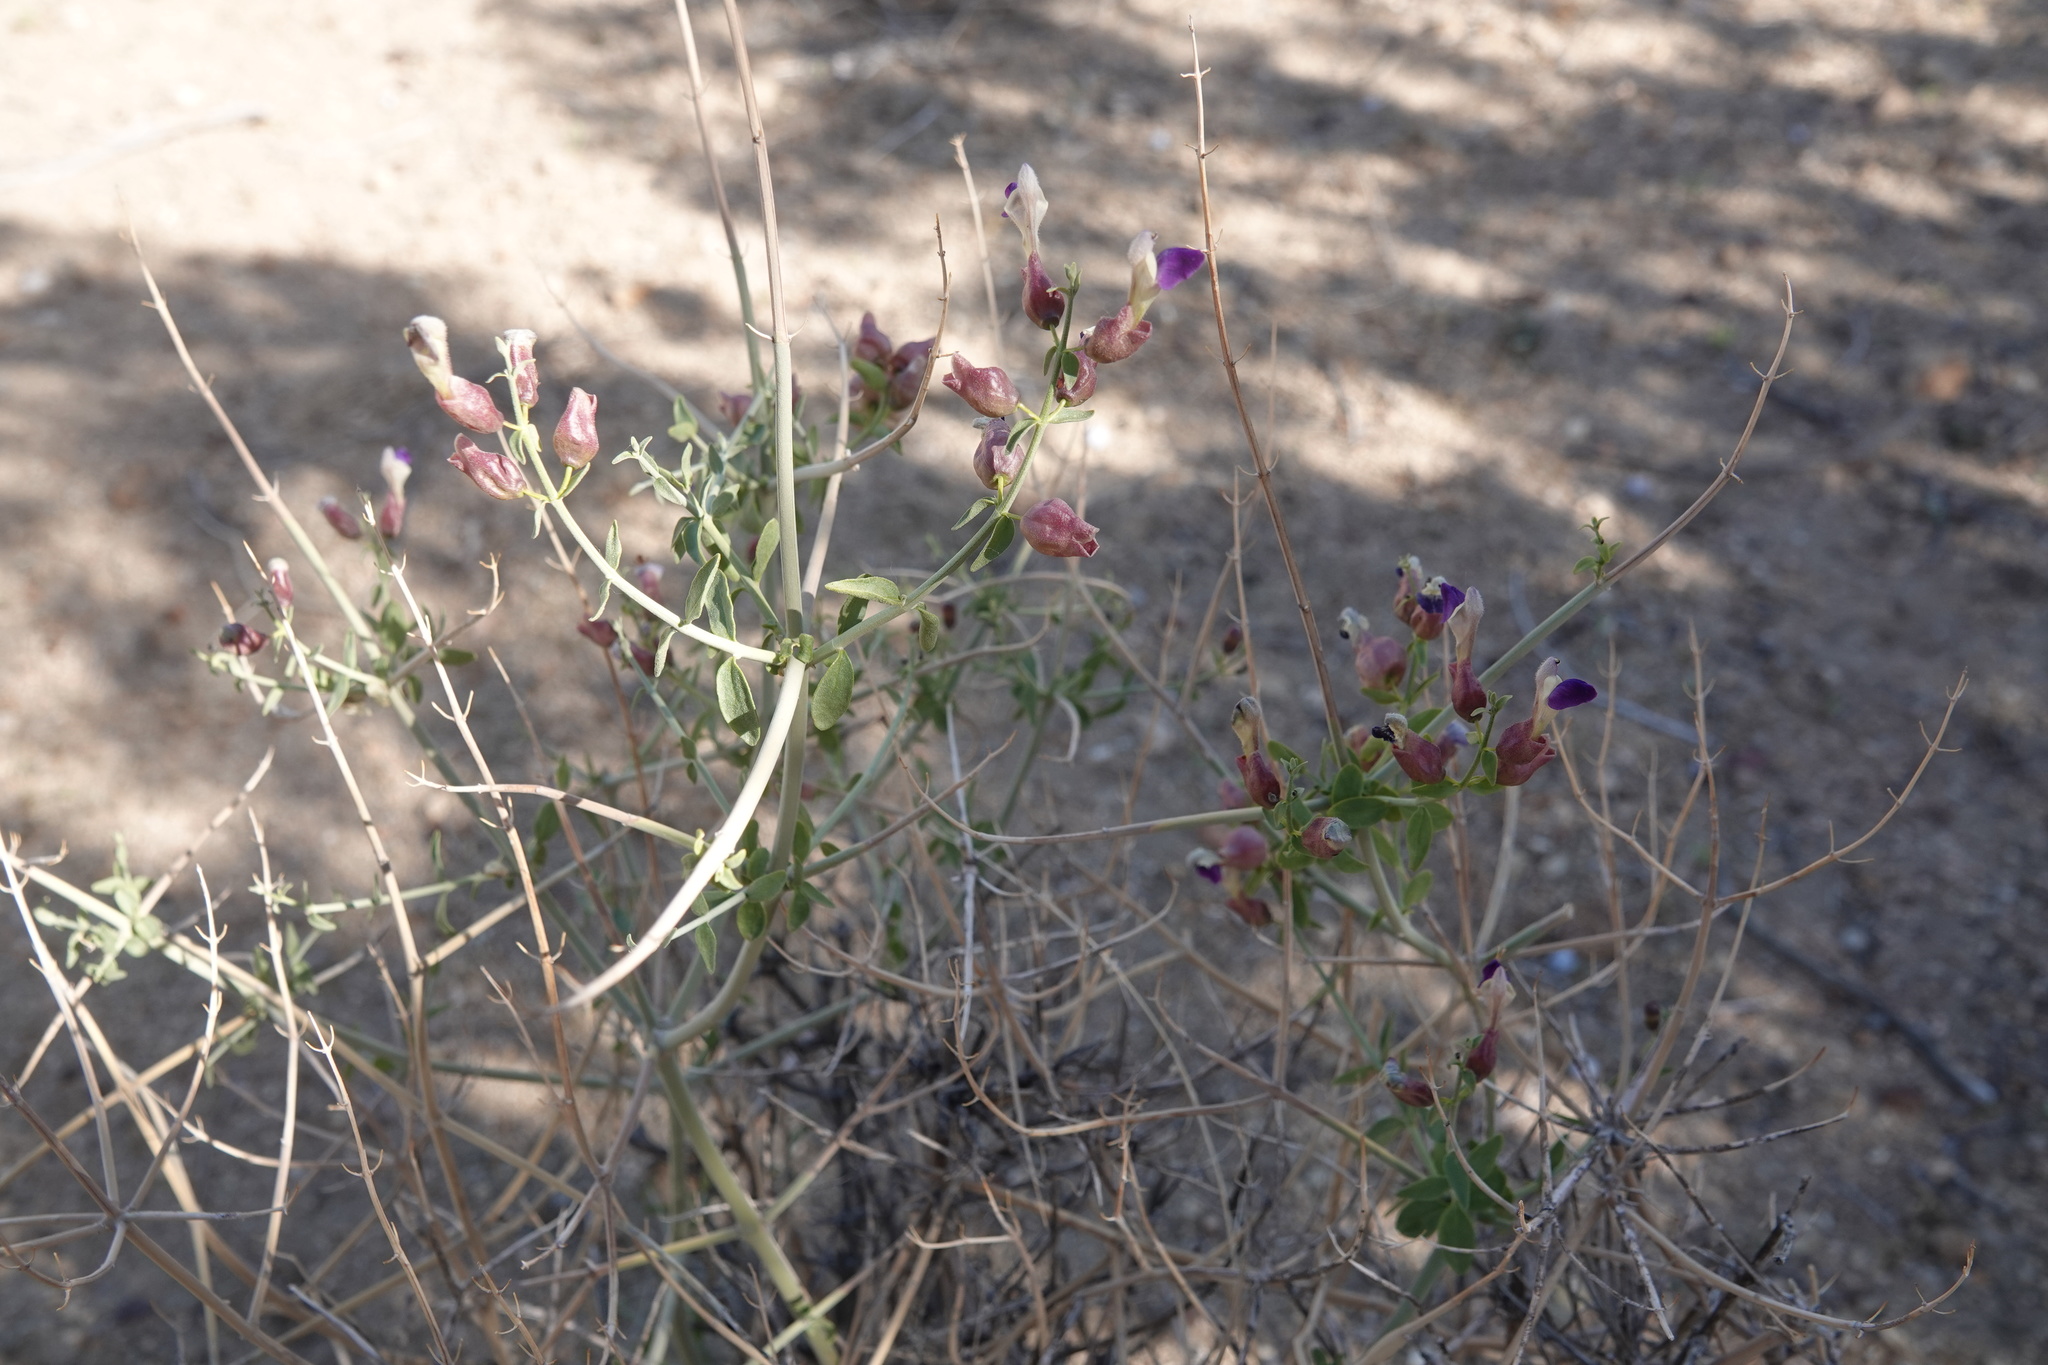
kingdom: Plantae
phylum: Tracheophyta
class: Magnoliopsida
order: Lamiales
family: Lamiaceae
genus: Scutellaria
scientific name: Scutellaria mexicana
